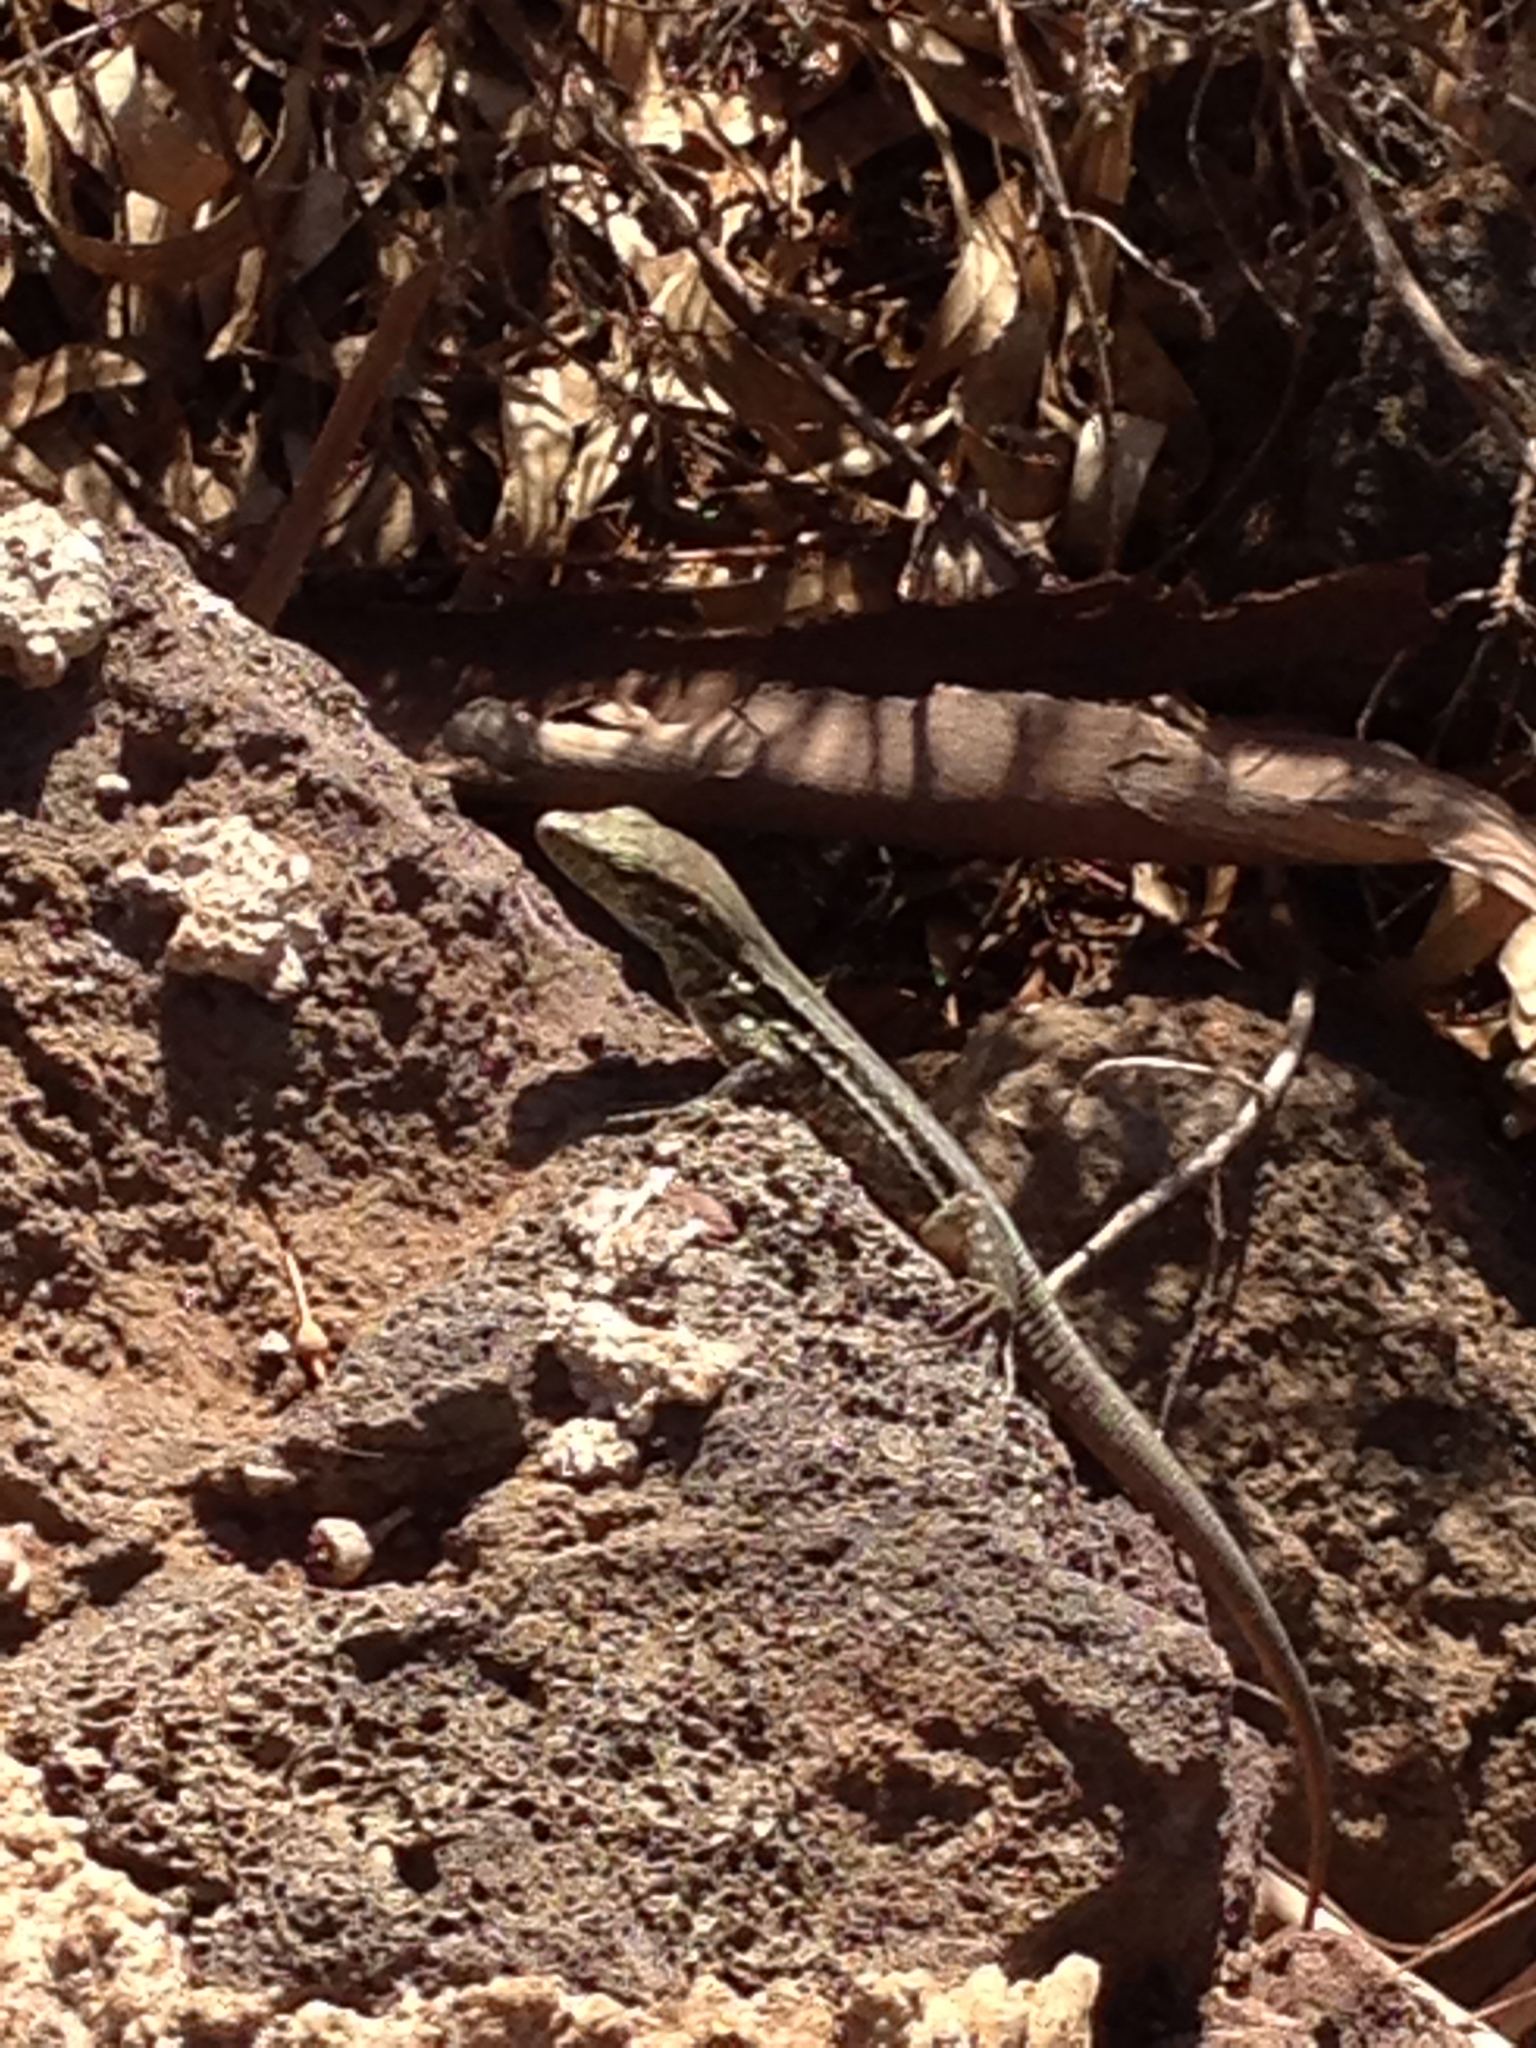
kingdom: Animalia
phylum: Chordata
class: Squamata
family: Lacertidae
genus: Gallotia
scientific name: Gallotia galloti
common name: Gallot's lizard
